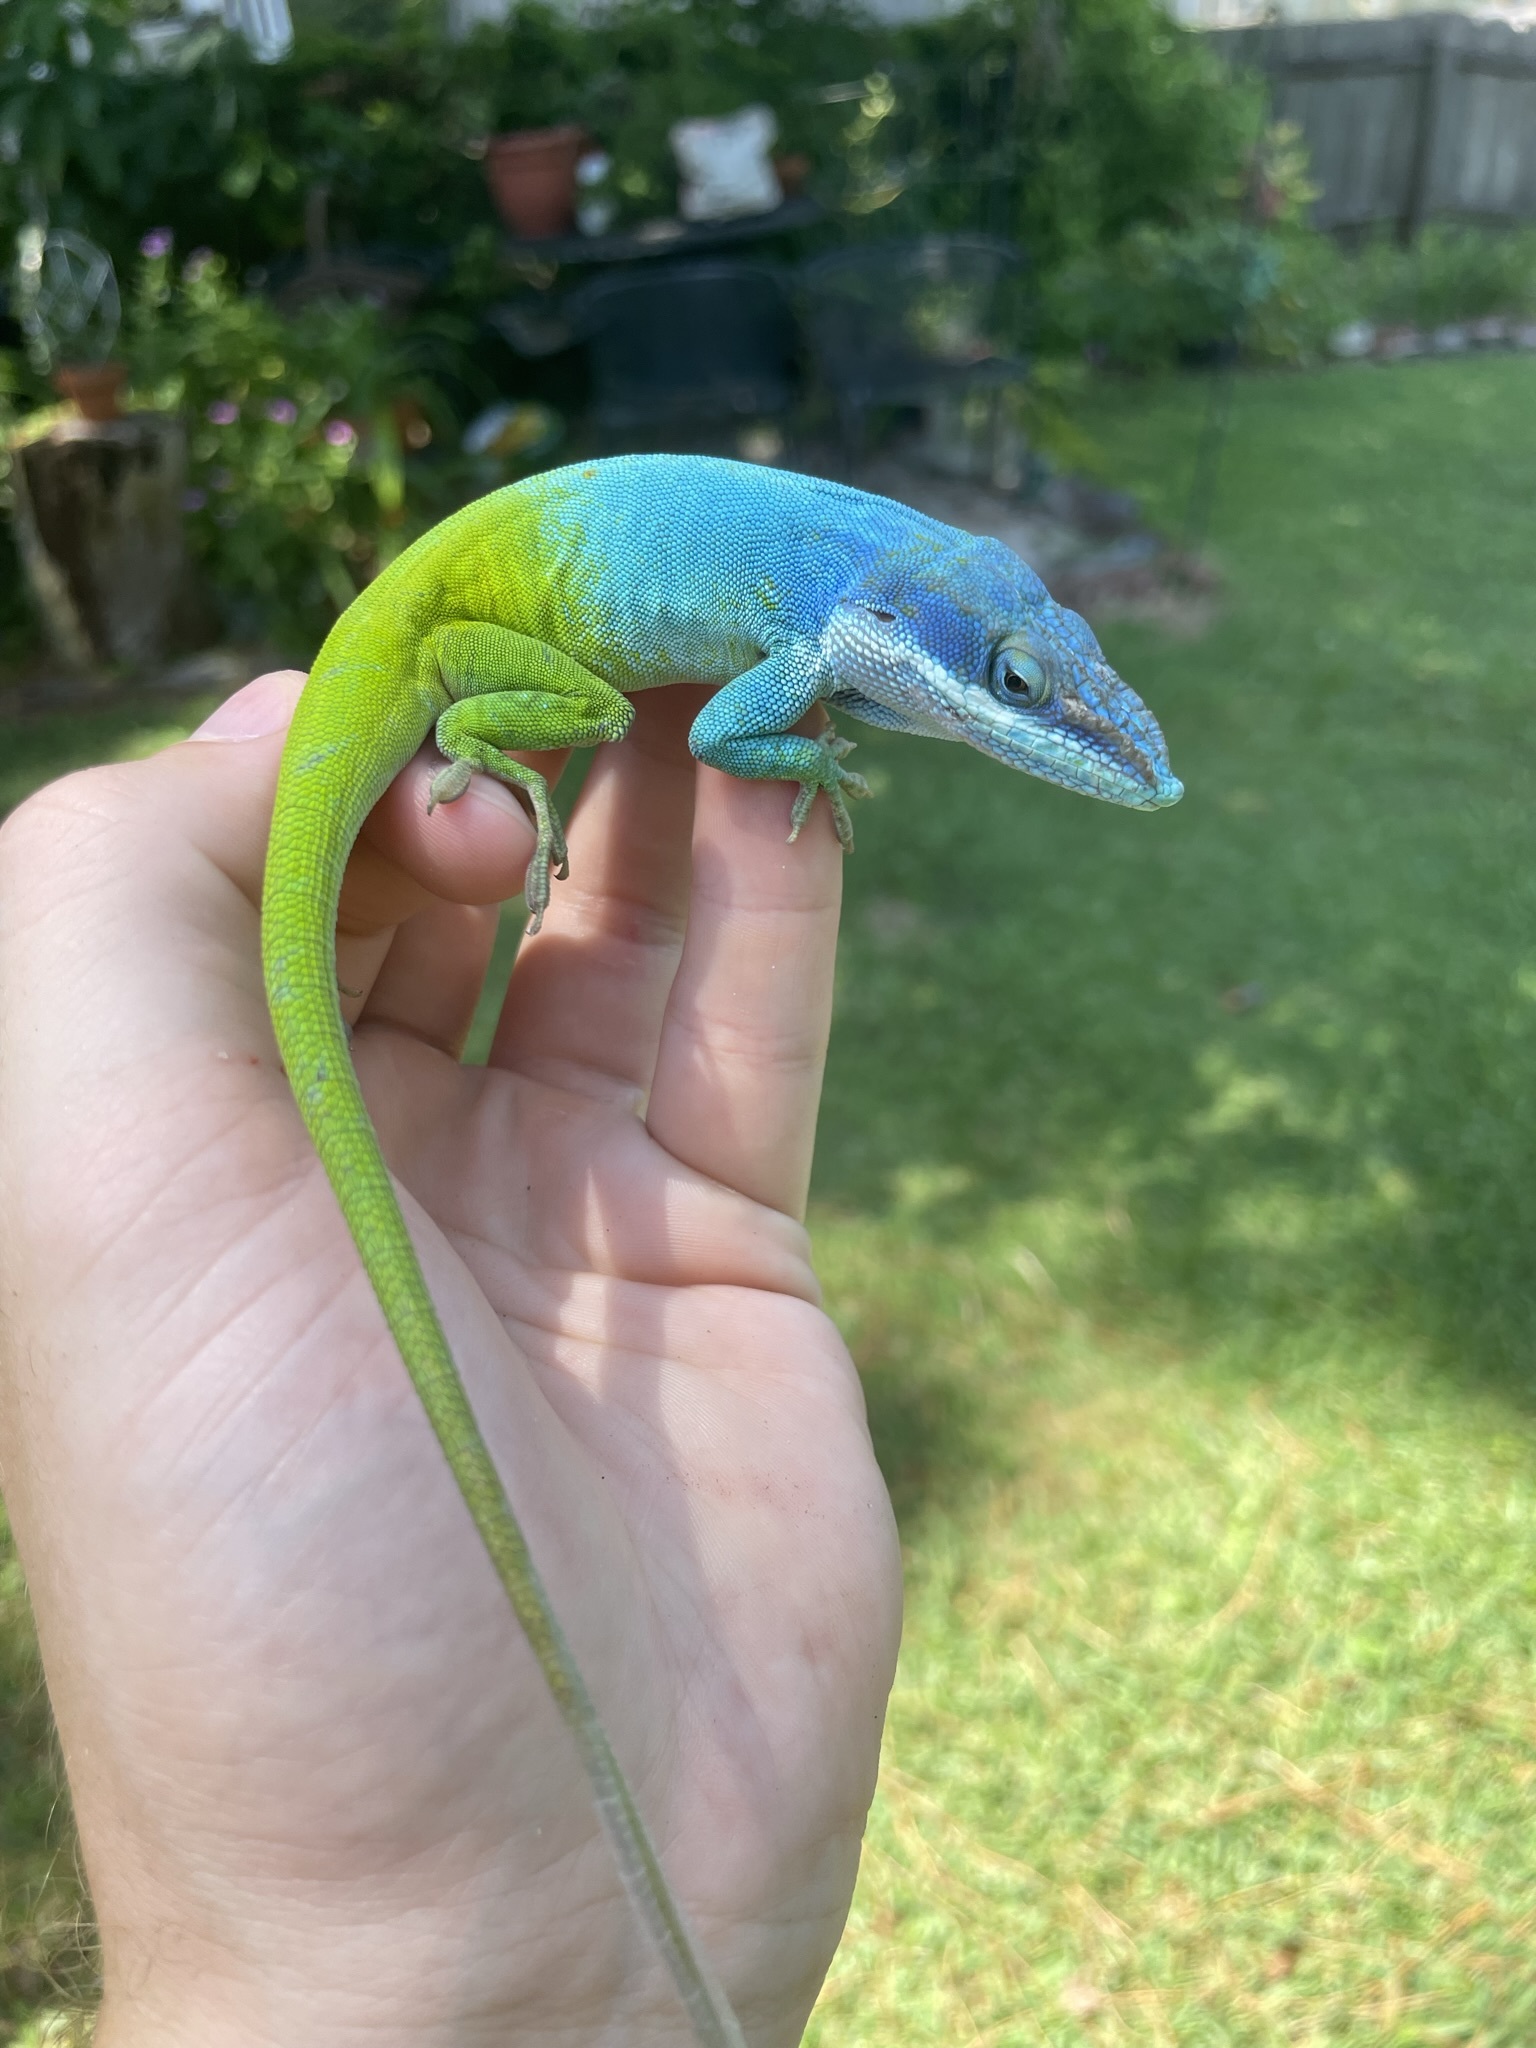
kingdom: Animalia
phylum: Chordata
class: Squamata
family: Dactyloidae
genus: Anolis
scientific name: Anolis allisoni
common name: Allison's anole
